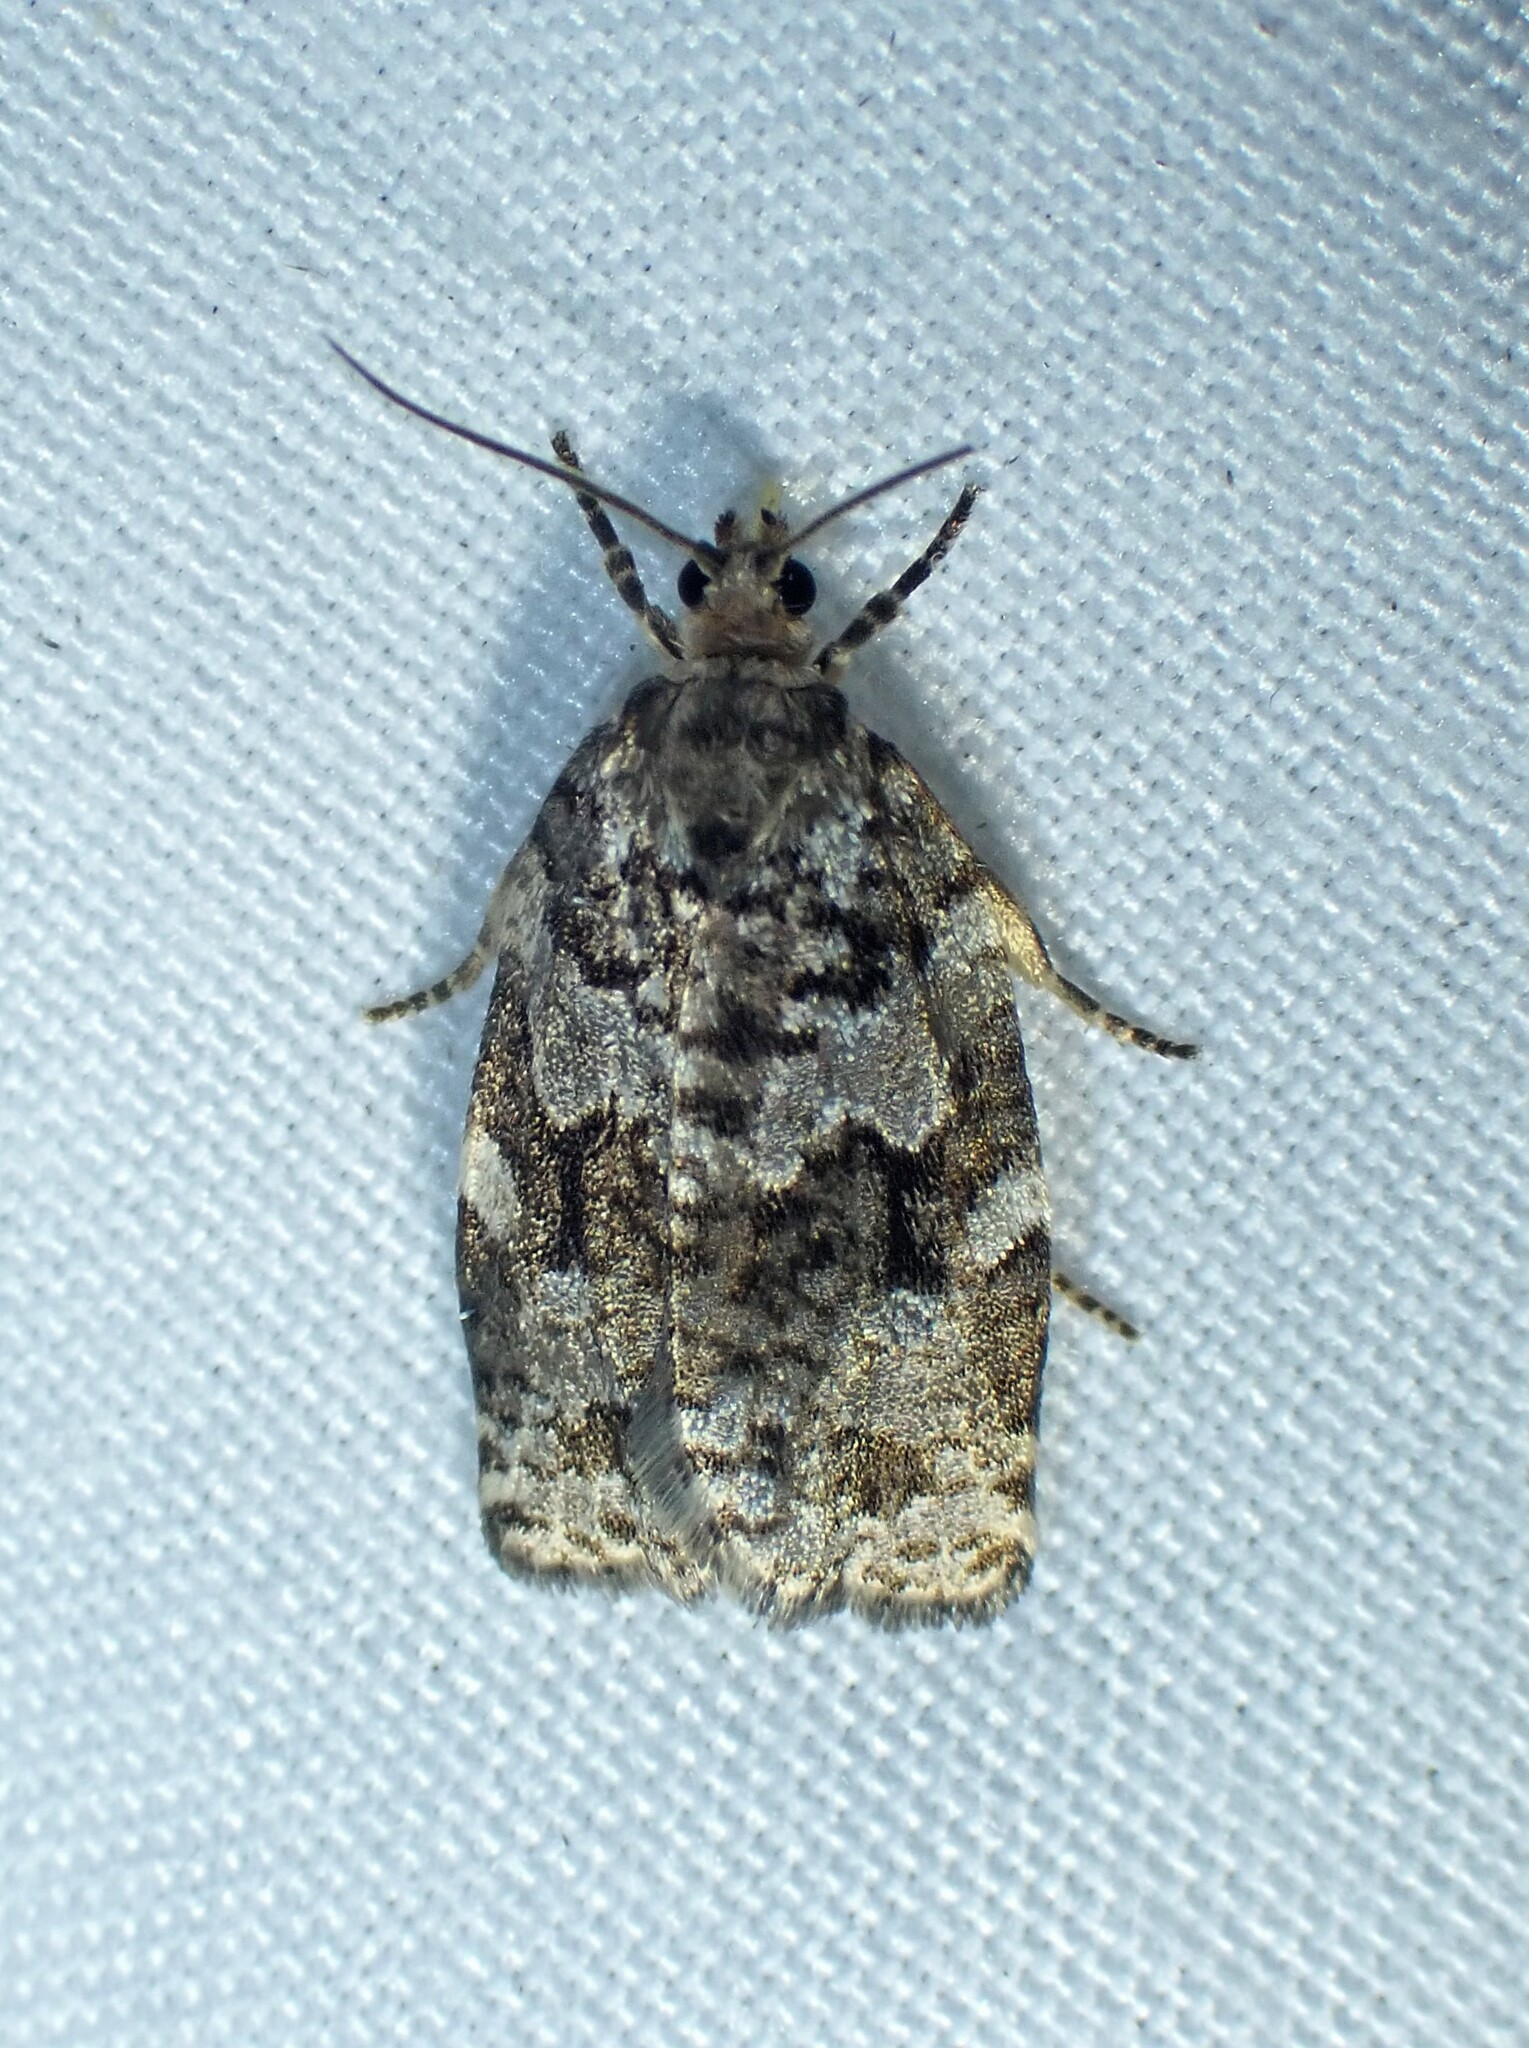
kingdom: Animalia
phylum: Arthropoda
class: Insecta
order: Lepidoptera
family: Tortricidae
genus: Choristoneura
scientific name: Choristoneura fumiferana
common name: Spruce budworm
